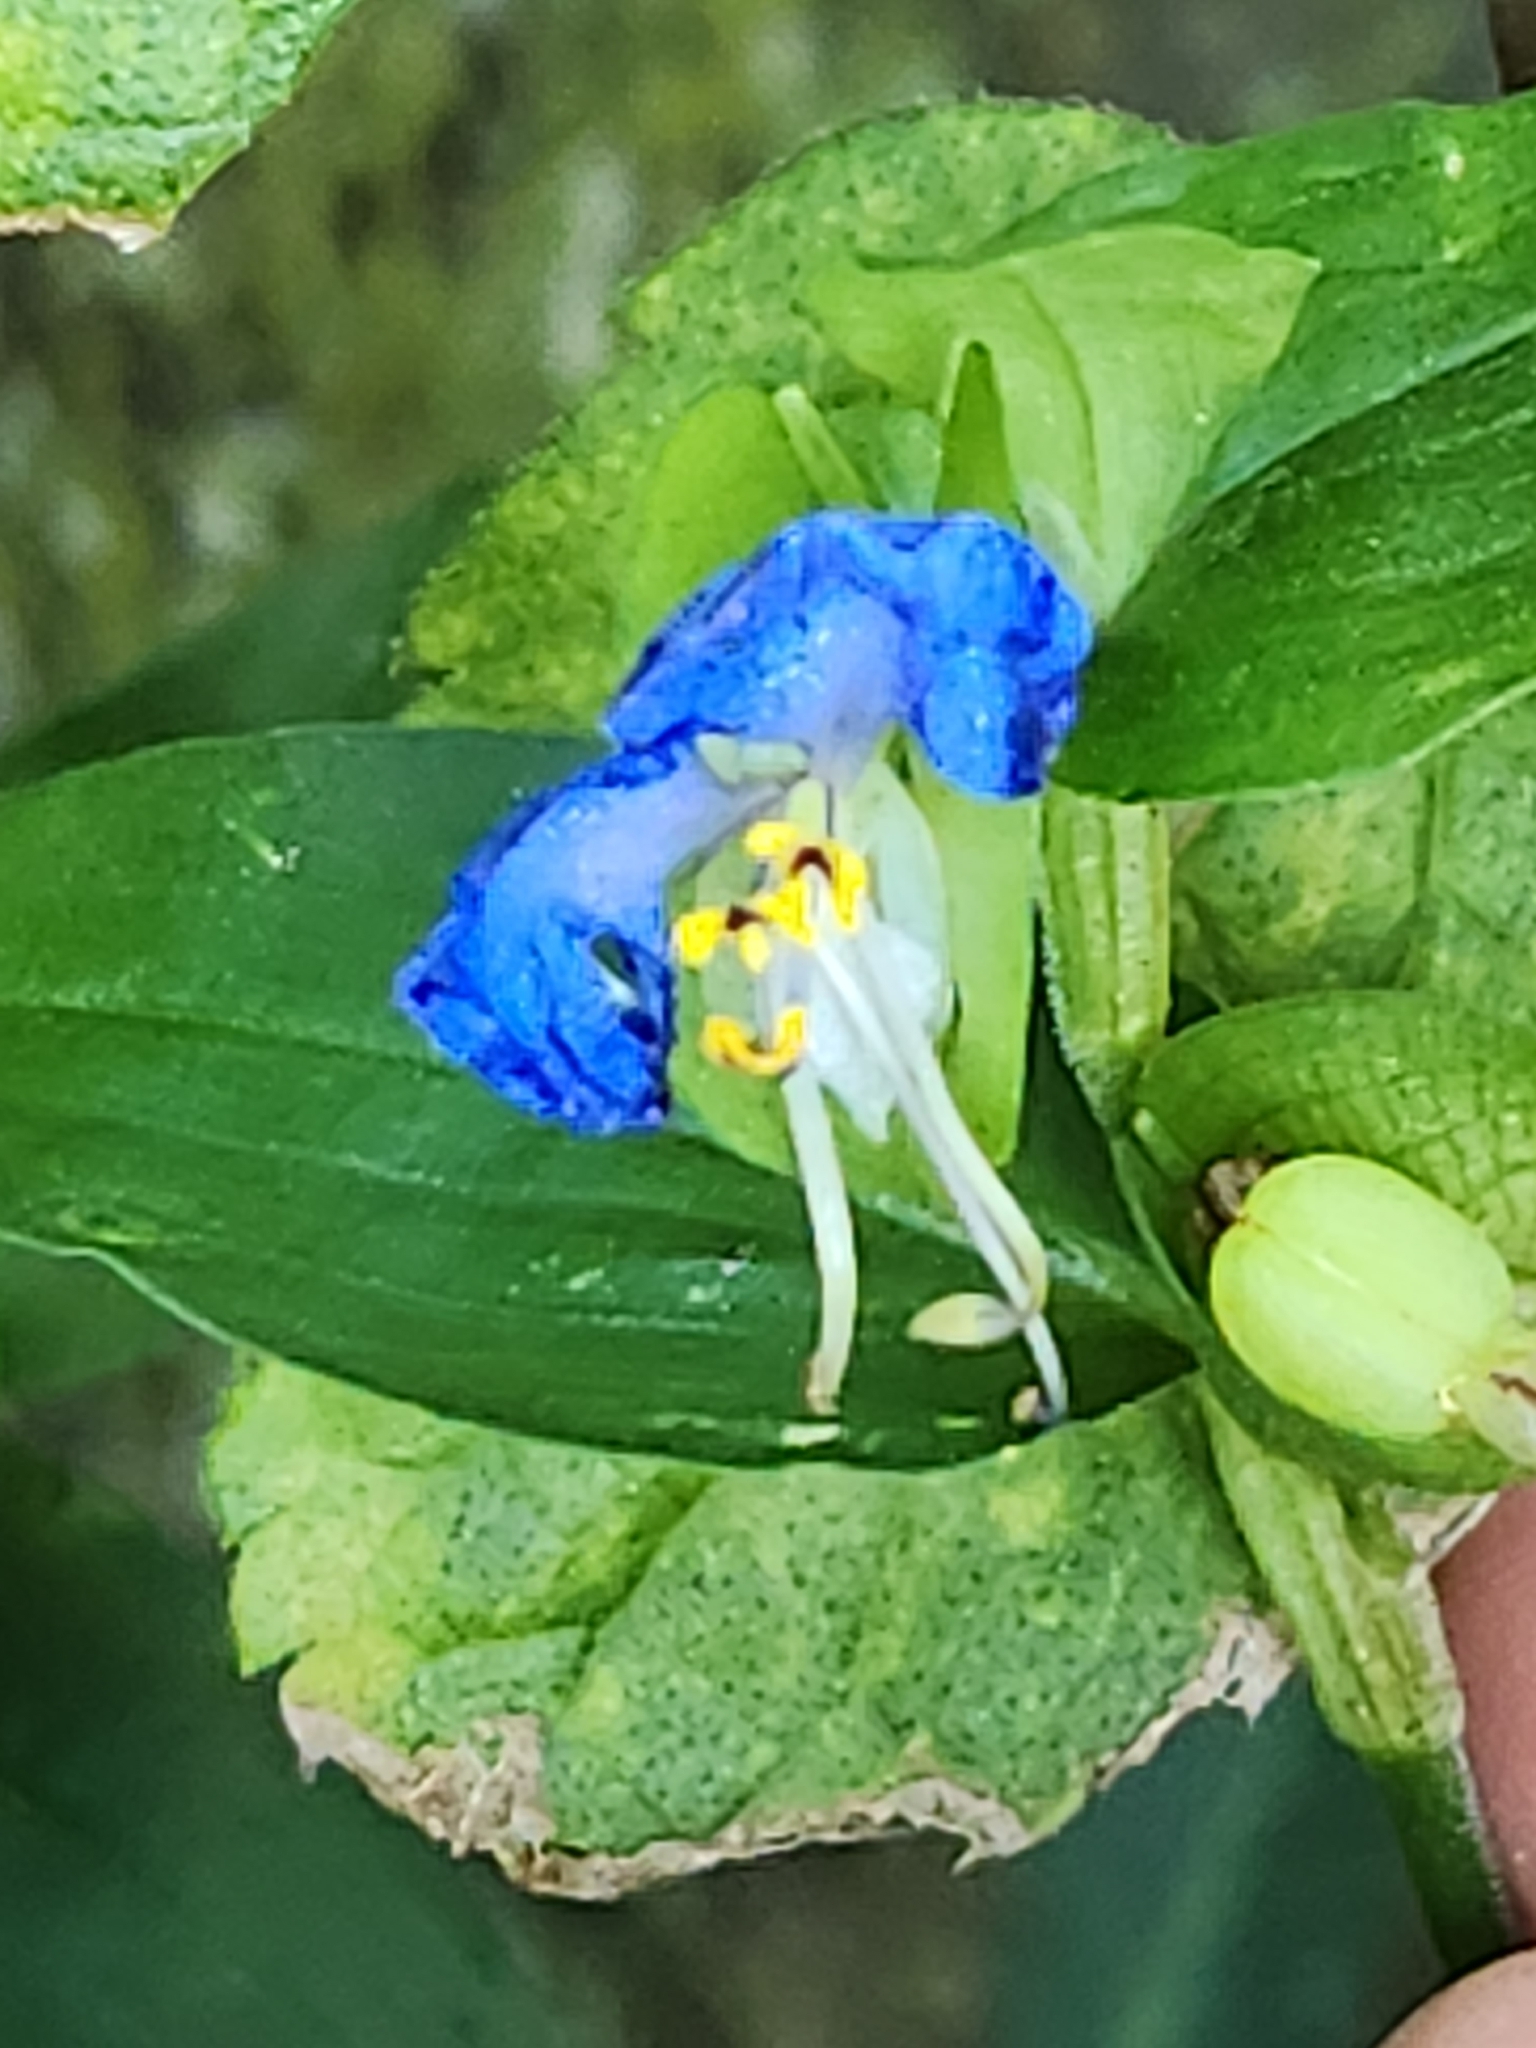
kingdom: Plantae
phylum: Tracheophyta
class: Liliopsida
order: Commelinales
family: Commelinaceae
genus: Commelina
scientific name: Commelina communis
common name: Asiatic dayflower
